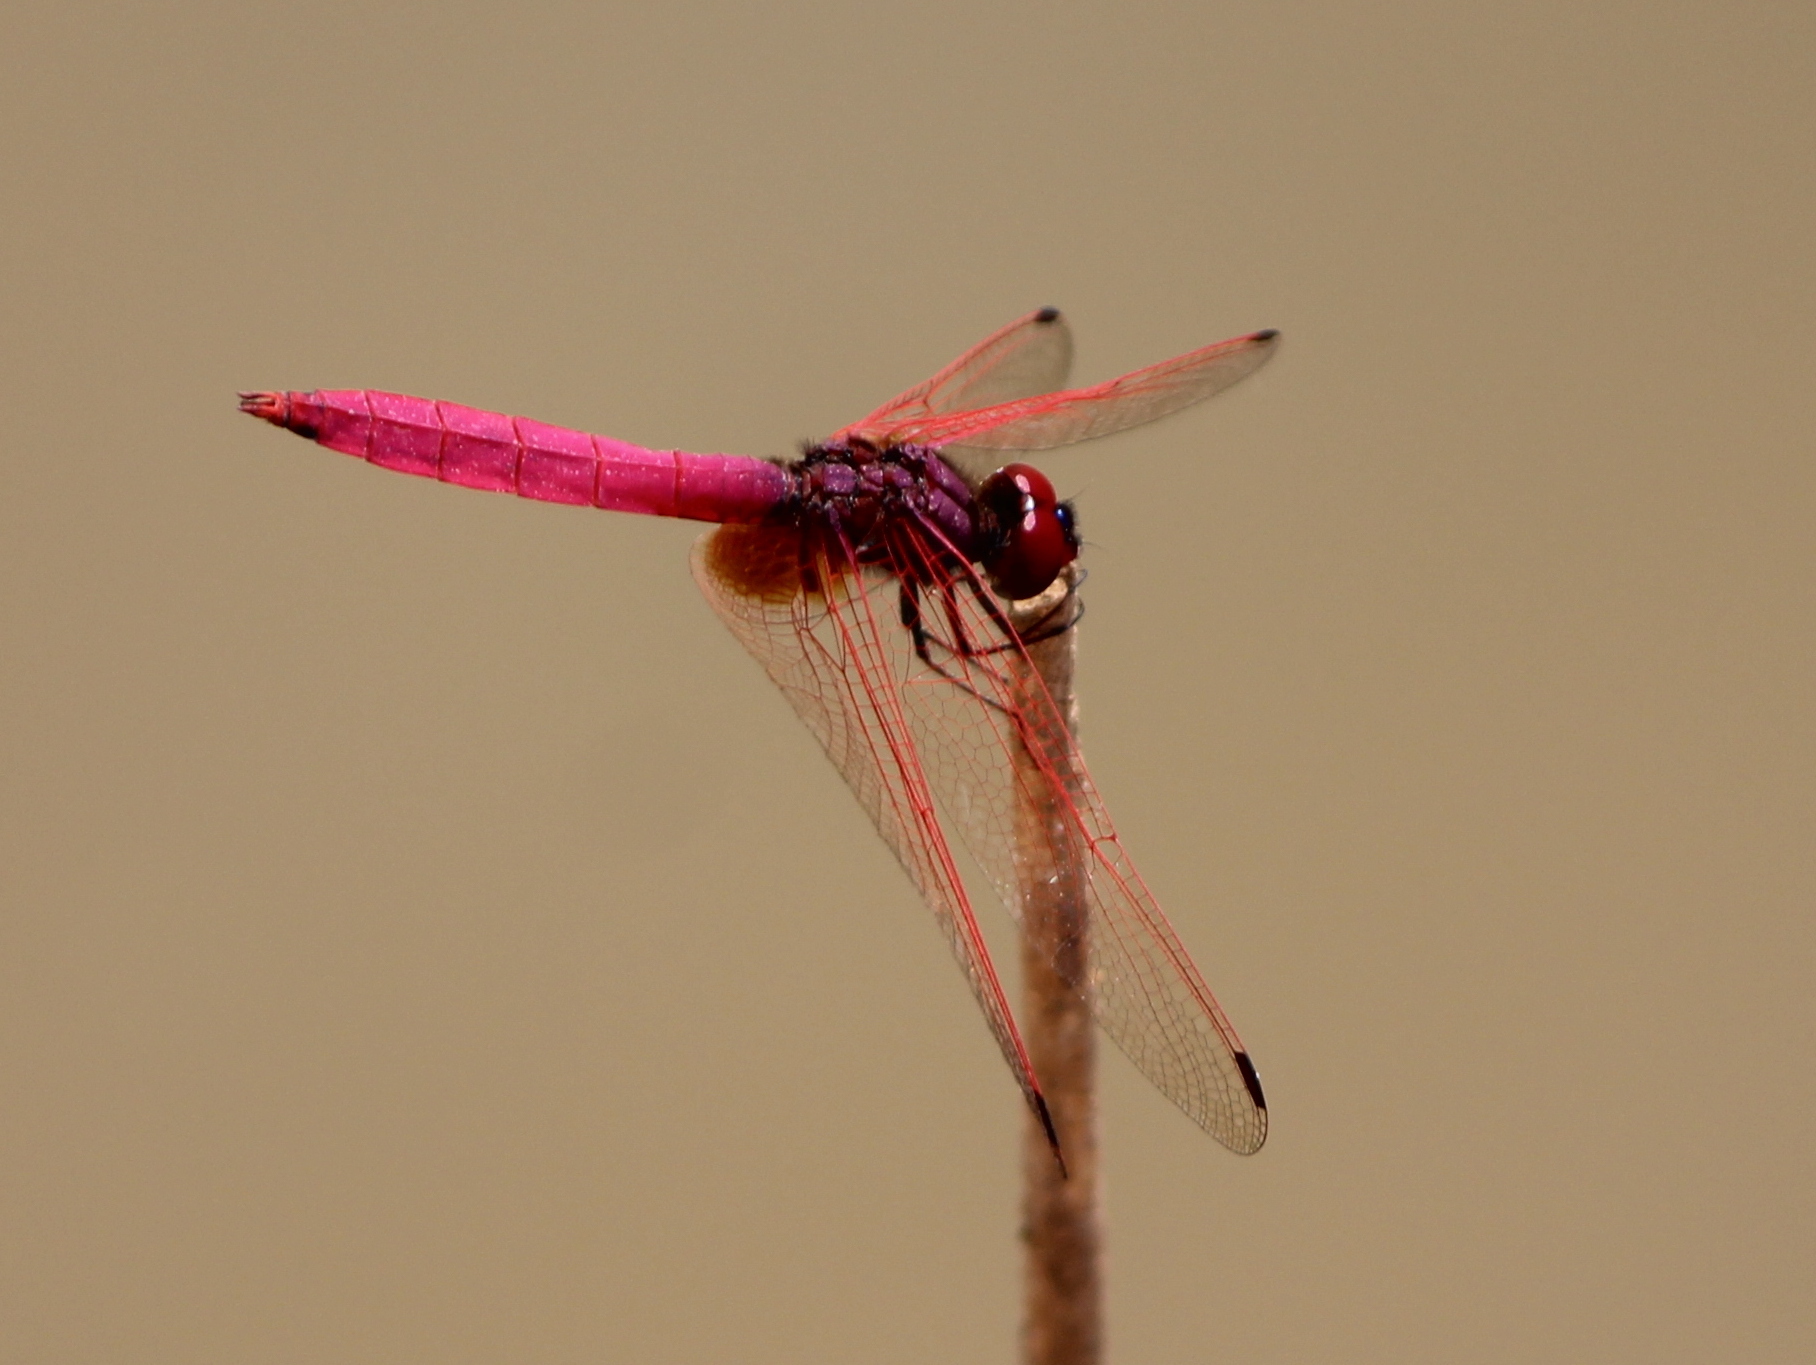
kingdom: Animalia
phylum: Arthropoda
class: Insecta
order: Odonata
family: Libellulidae
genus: Trithemis
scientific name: Trithemis aurora
